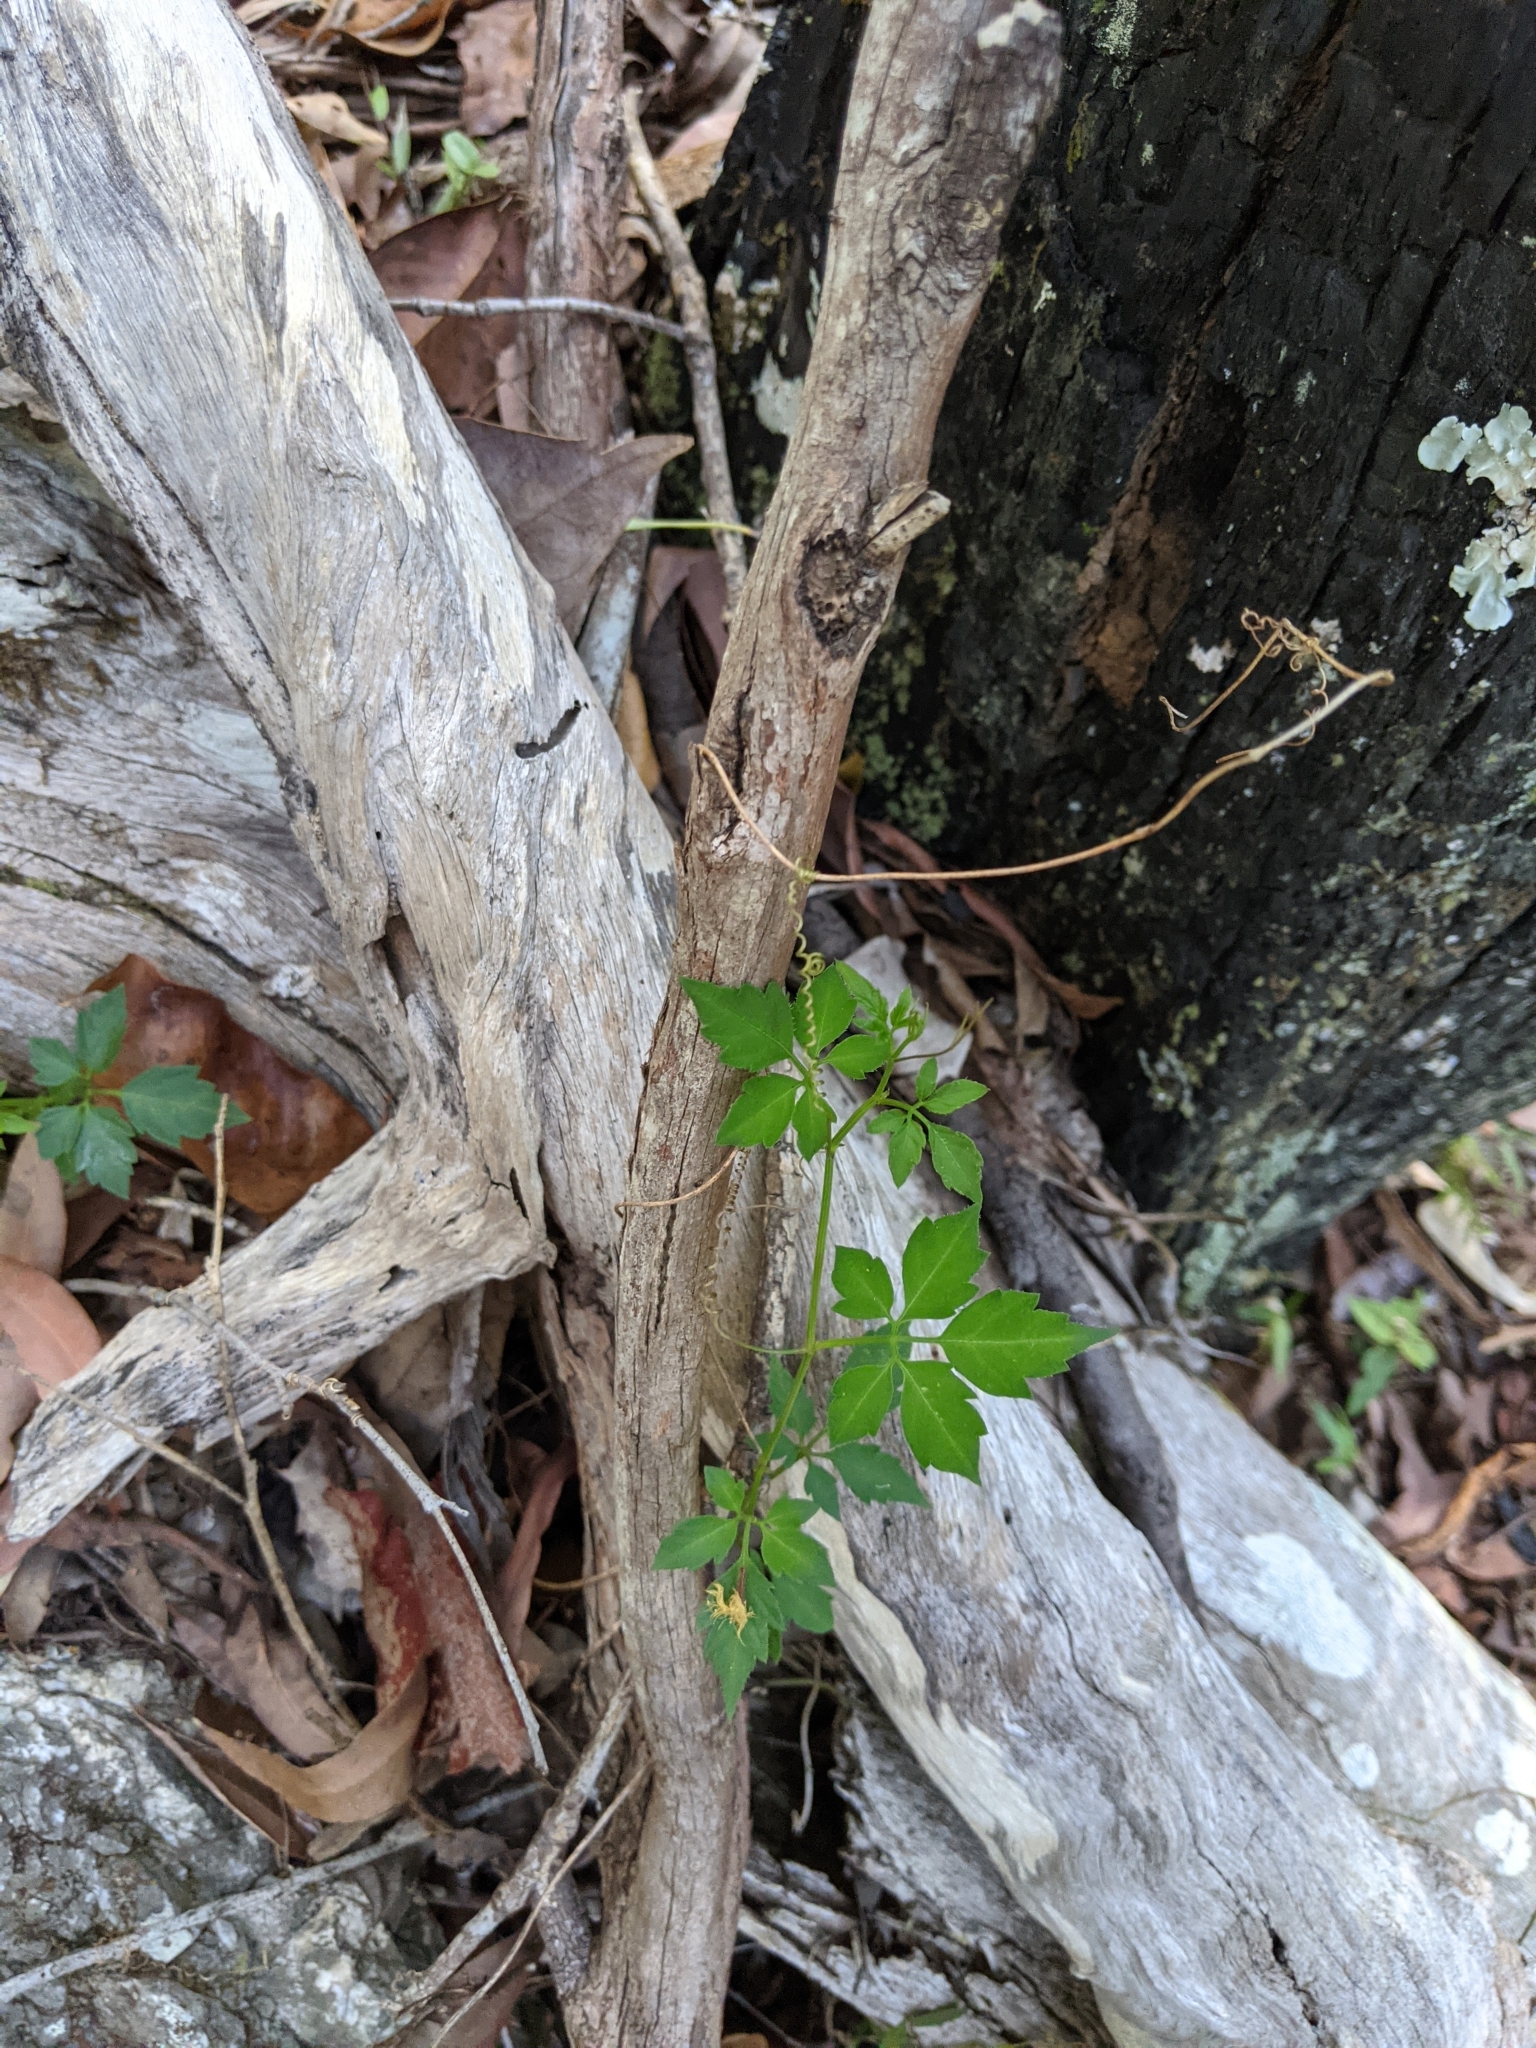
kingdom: Plantae
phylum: Tracheophyta
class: Magnoliopsida
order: Vitales
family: Vitaceae
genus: Causonis
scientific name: Causonis clematidea
